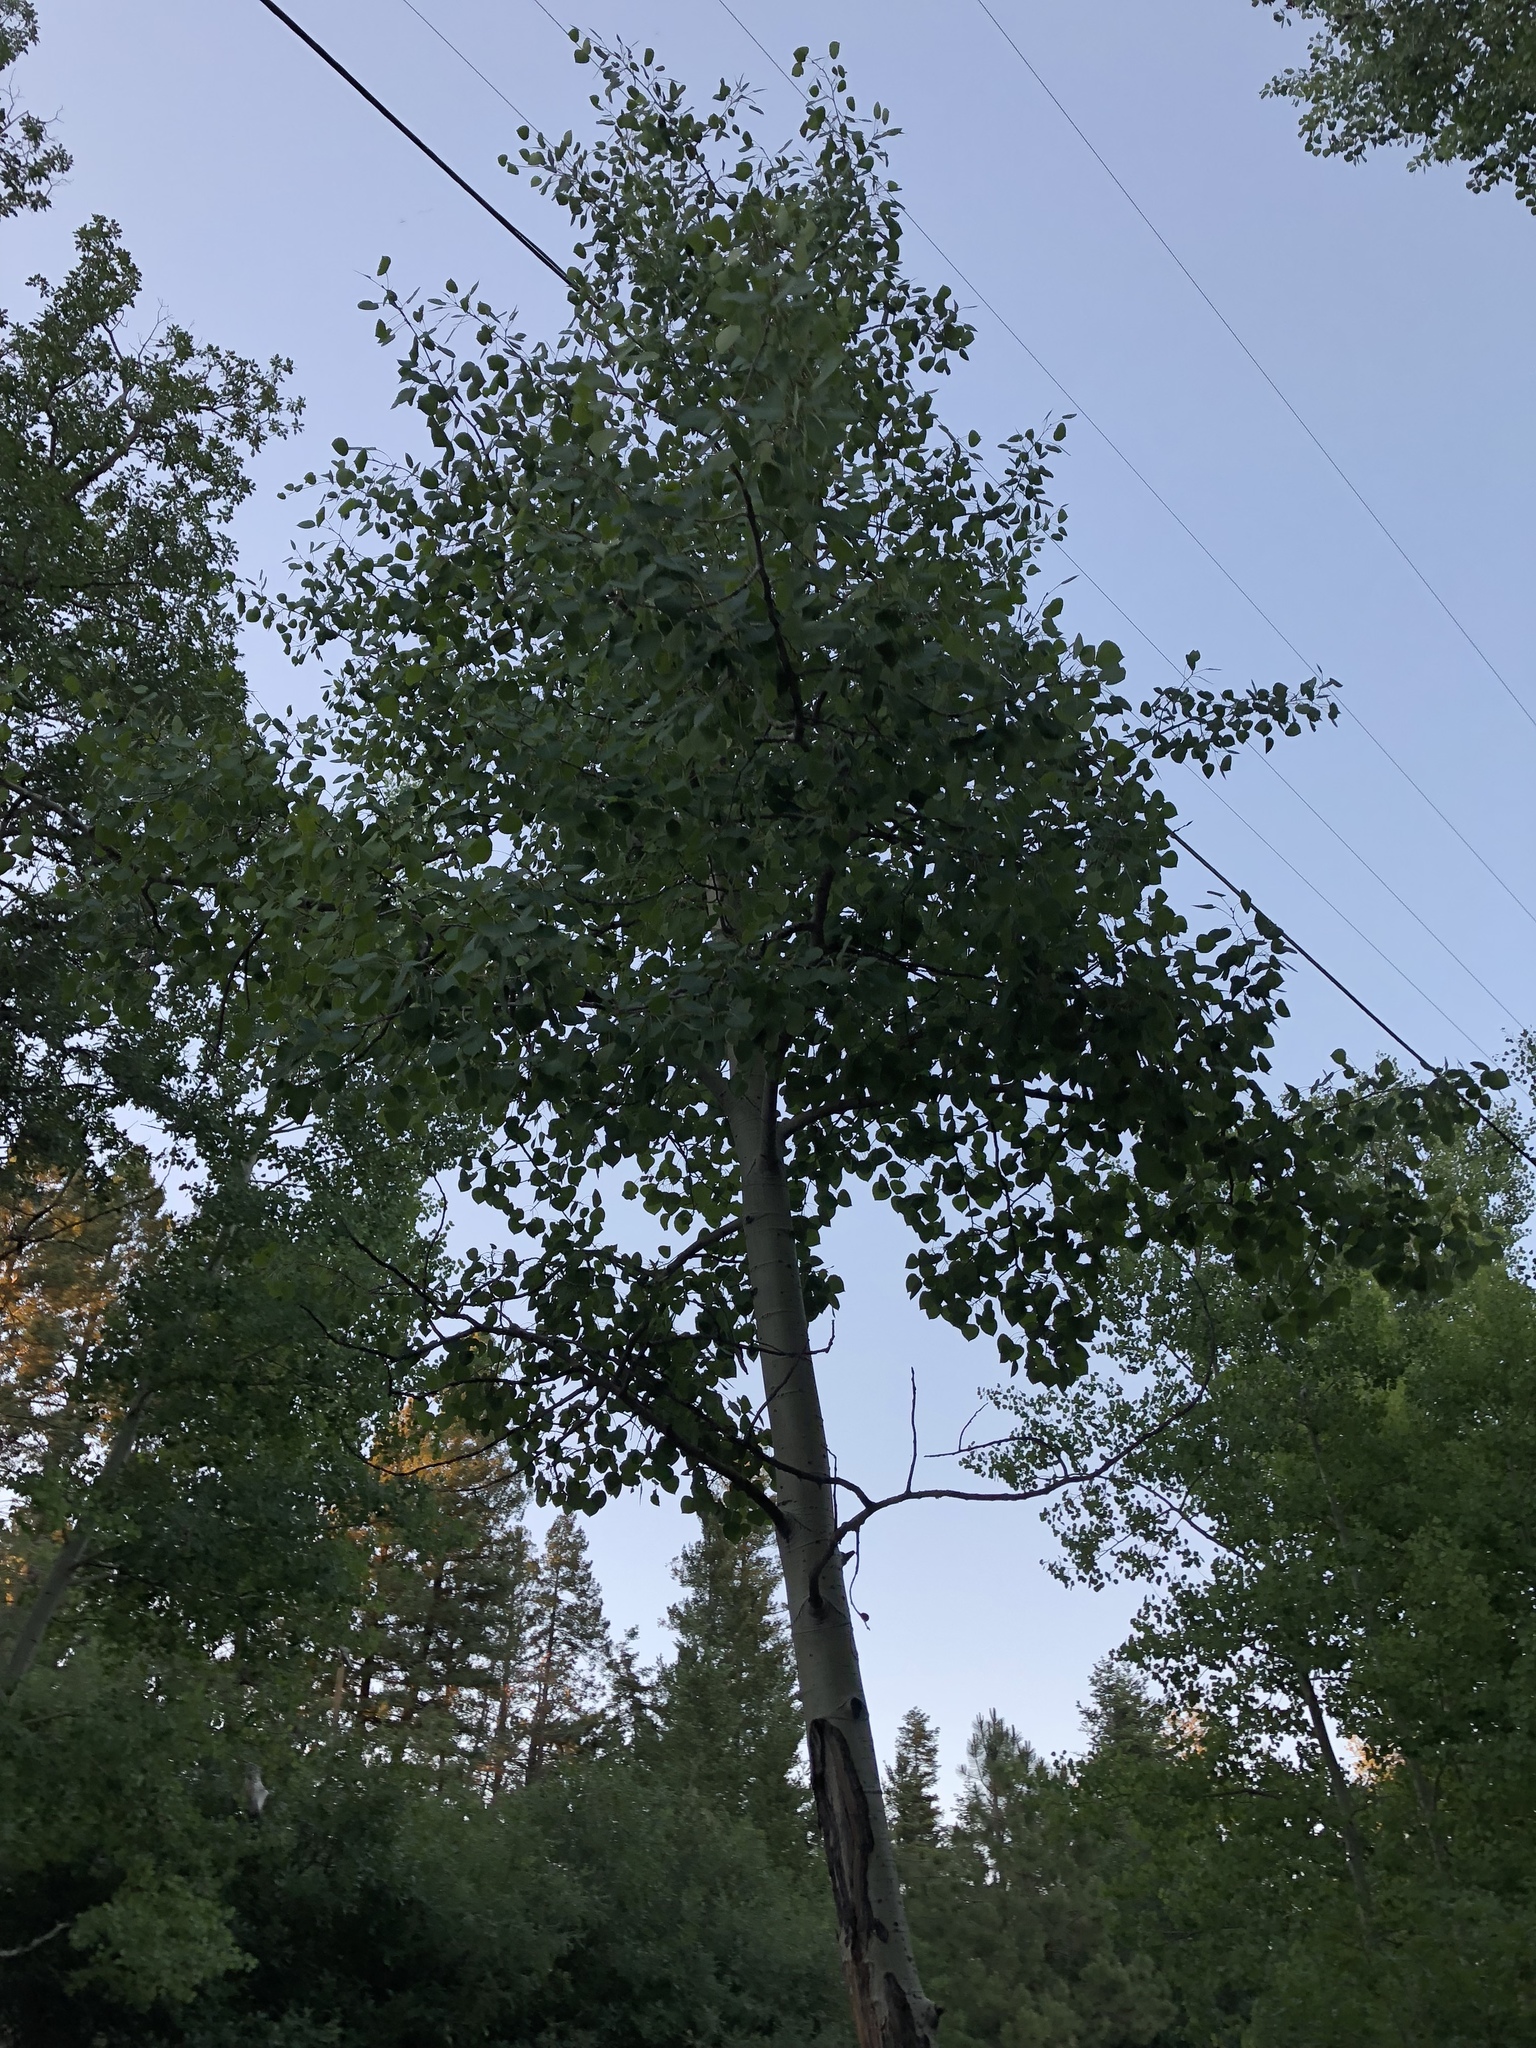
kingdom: Plantae
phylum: Tracheophyta
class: Magnoliopsida
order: Malpighiales
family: Salicaceae
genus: Populus
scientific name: Populus tremuloides
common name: Quaking aspen
